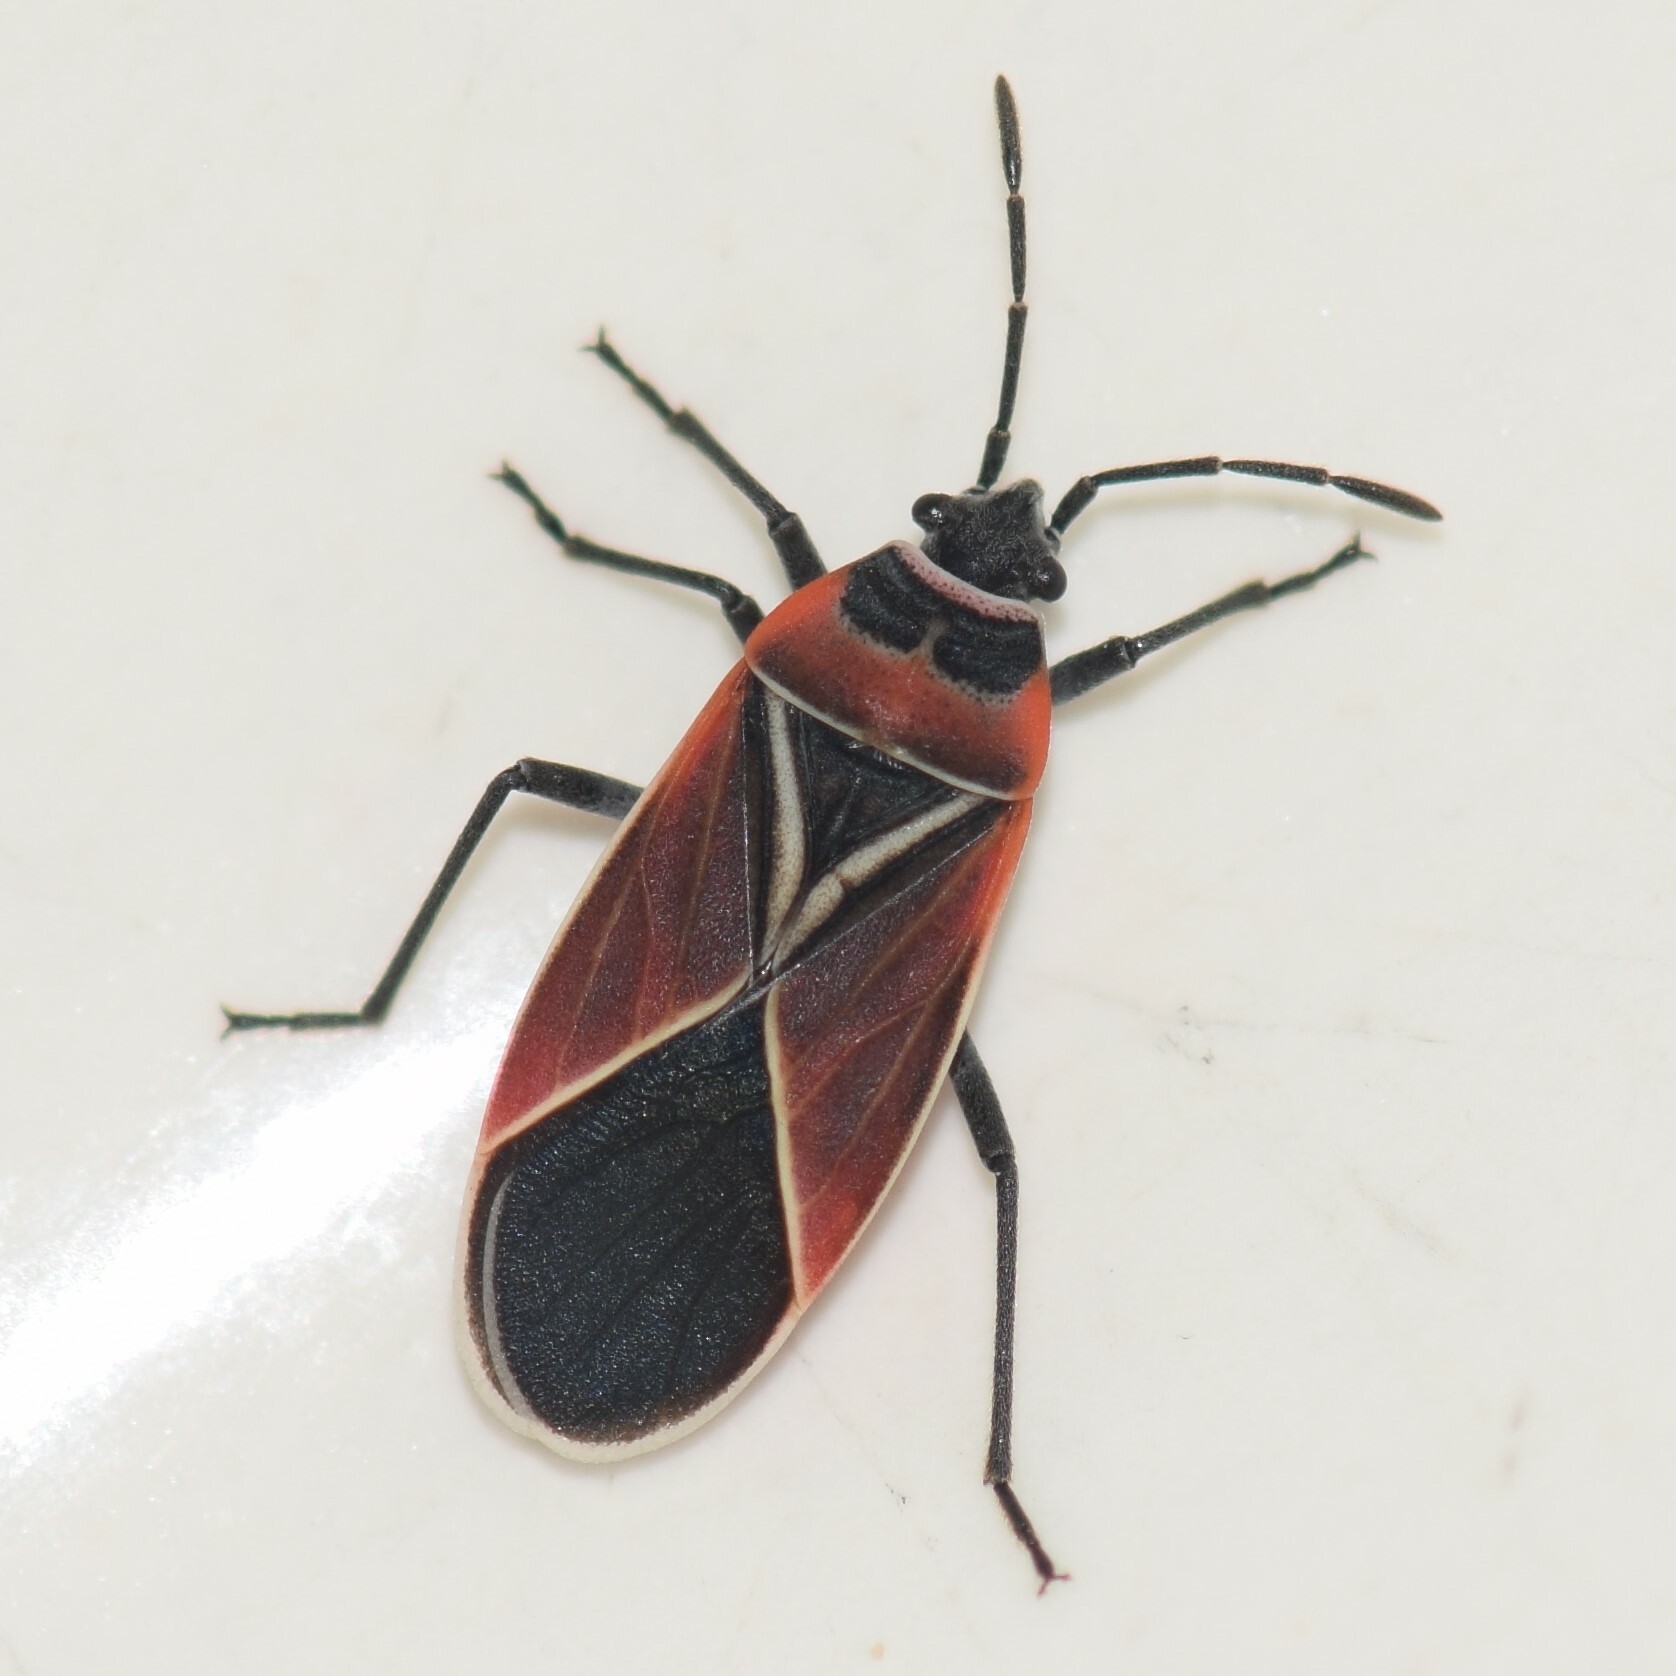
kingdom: Animalia
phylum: Arthropoda
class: Insecta
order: Hemiptera
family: Lygaeidae
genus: Neacoryphus
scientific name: Neacoryphus bicrucis
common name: Lygaeid bug
